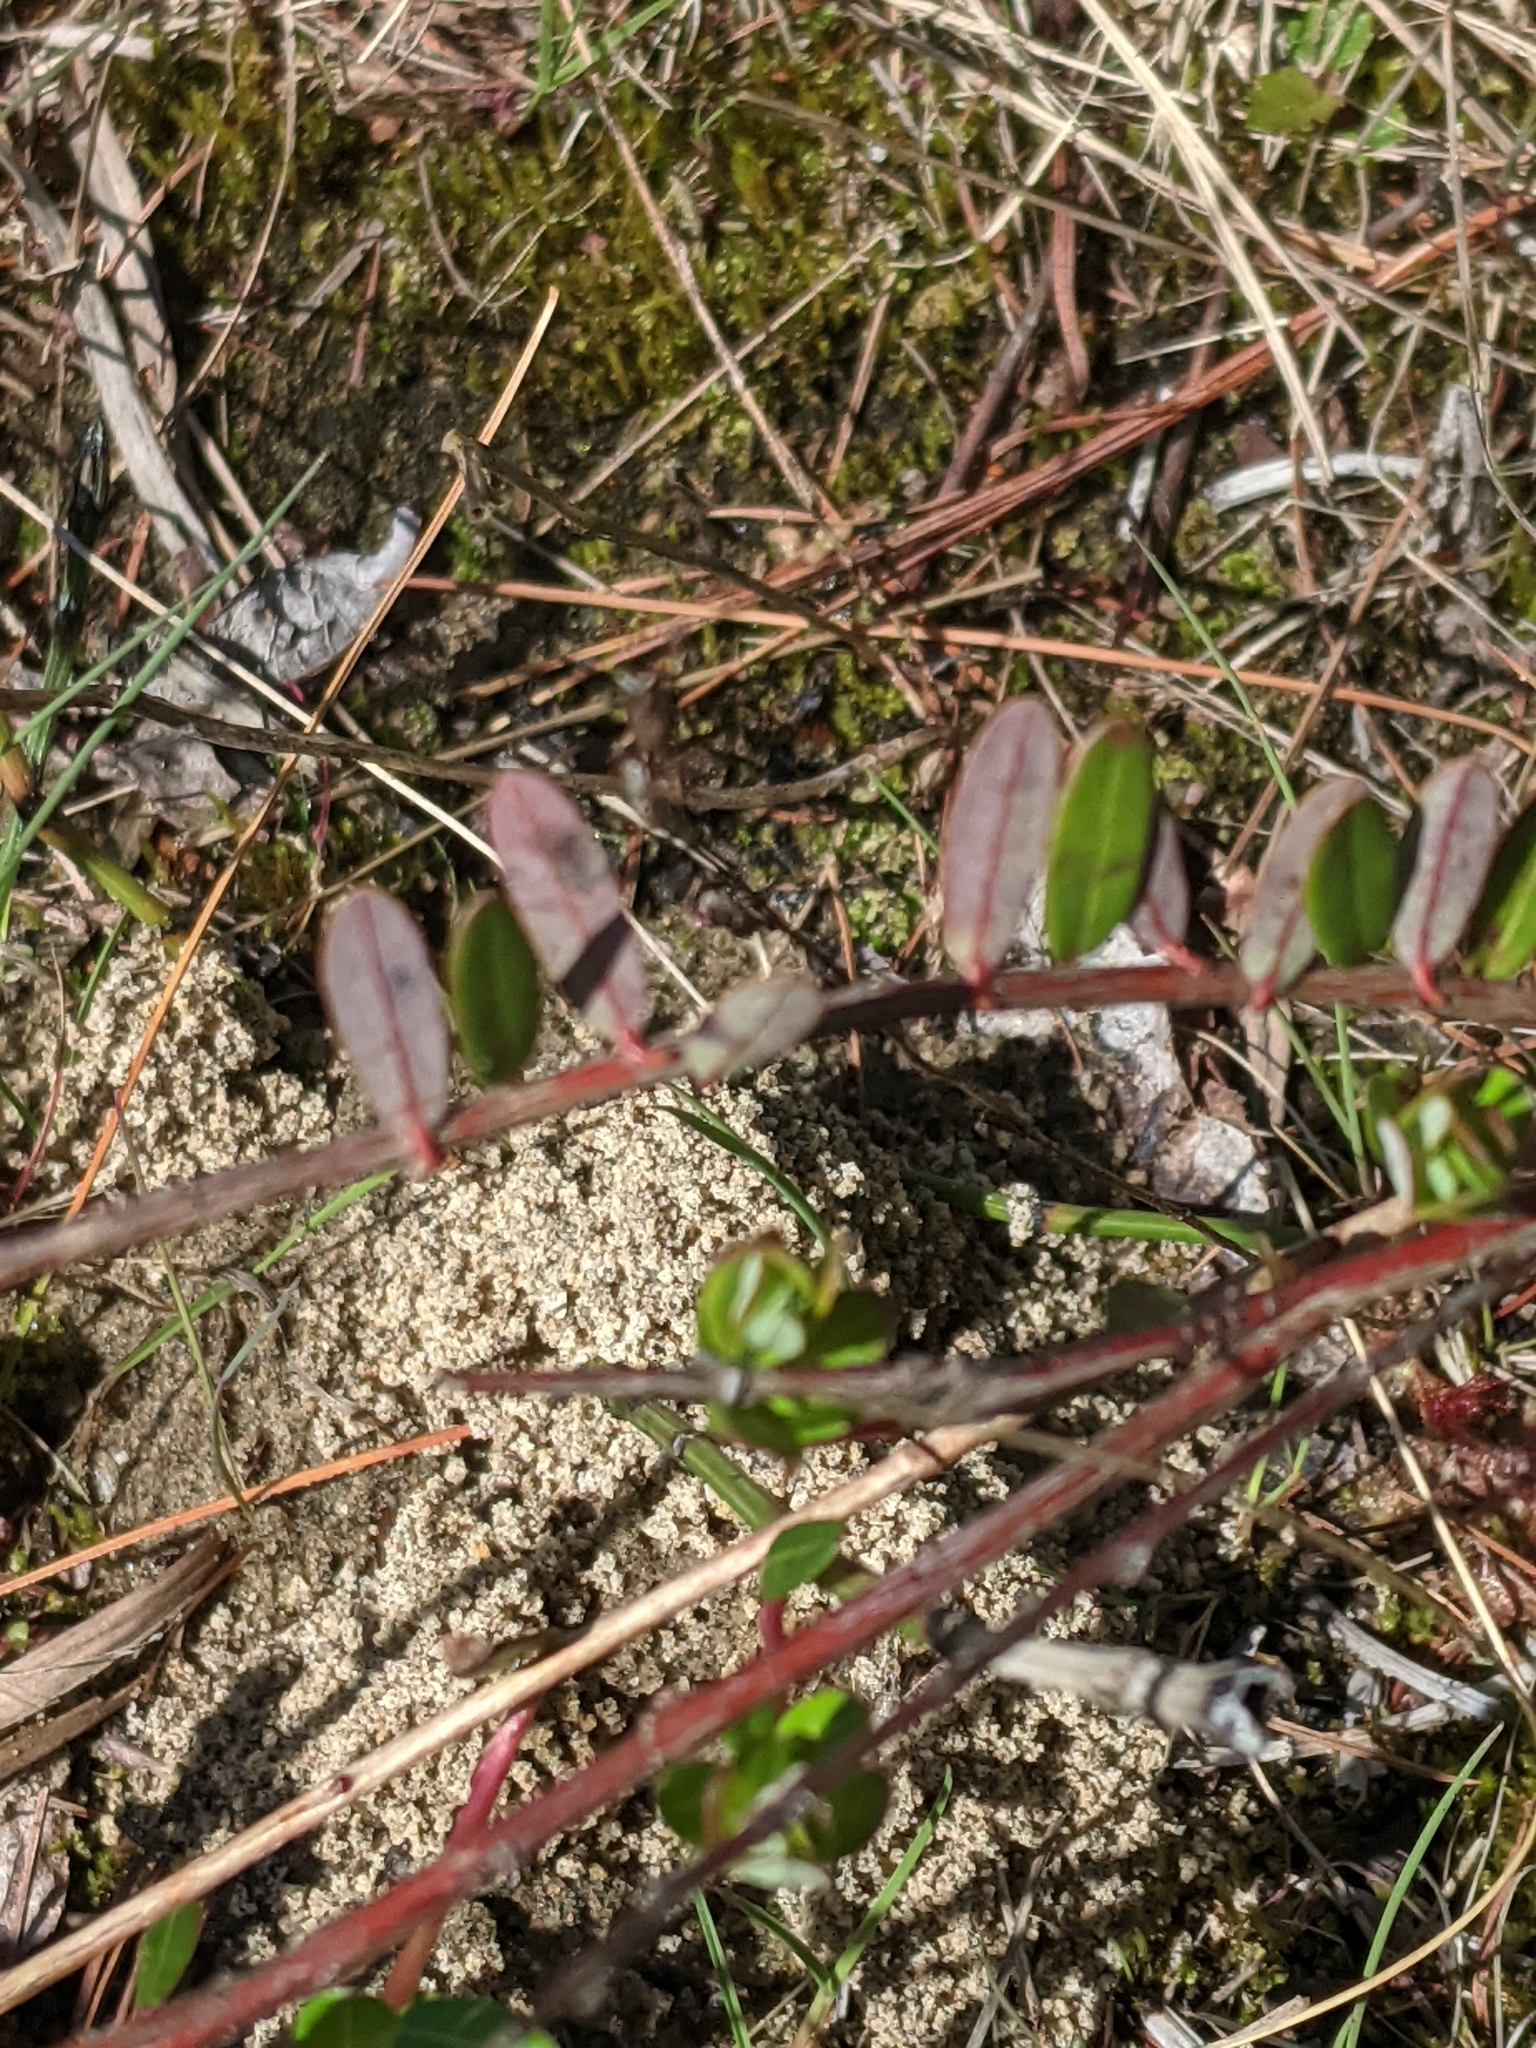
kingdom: Plantae
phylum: Tracheophyta
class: Magnoliopsida
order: Ericales
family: Ericaceae
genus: Vaccinium
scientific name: Vaccinium macrocarpon
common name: American cranberry
